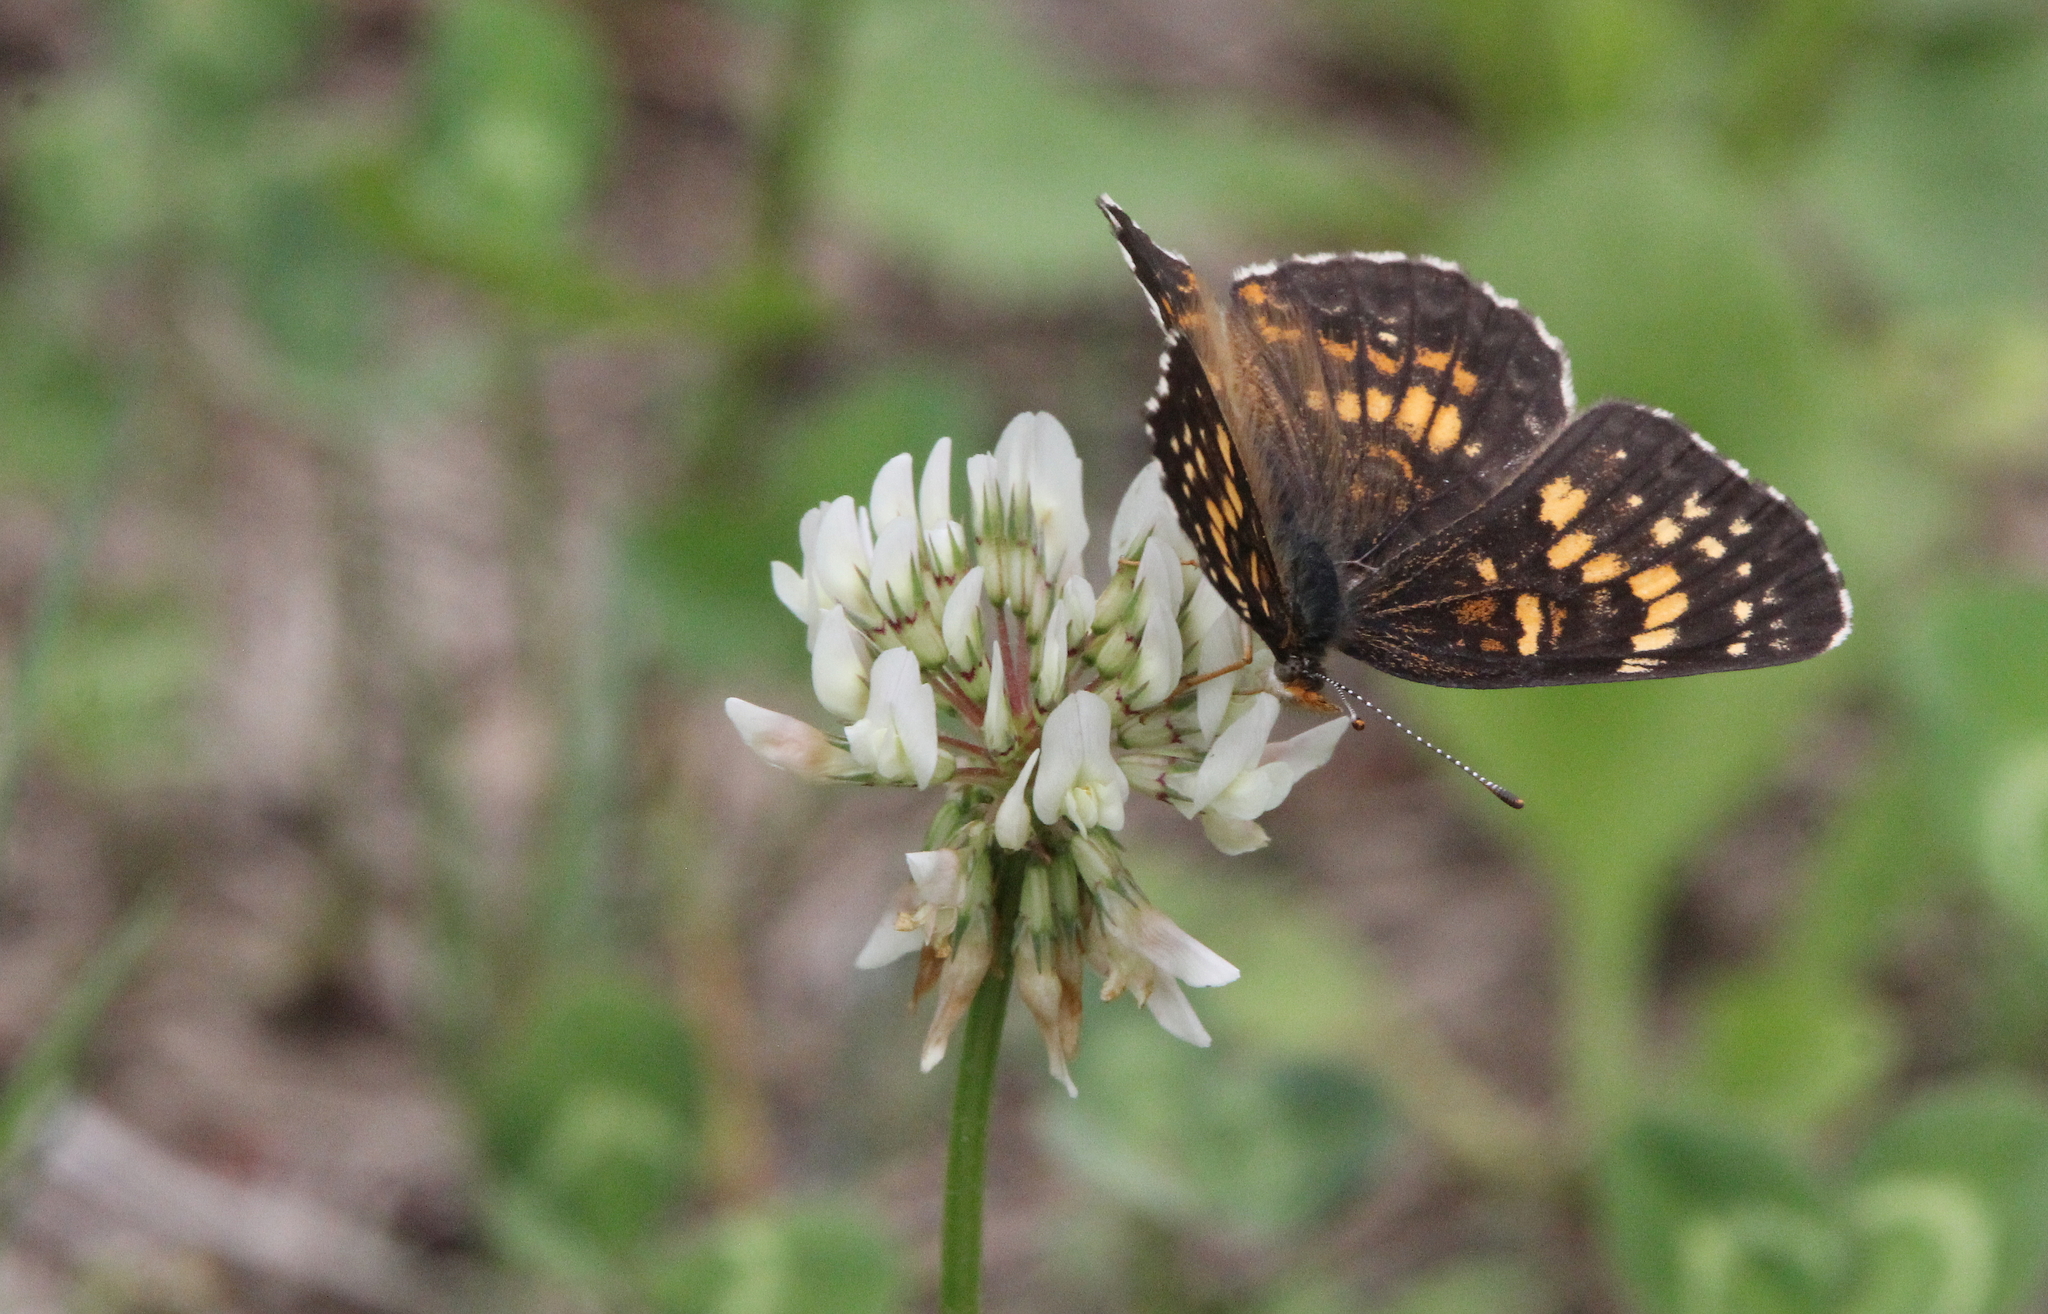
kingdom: Animalia
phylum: Arthropoda
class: Insecta
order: Lepidoptera
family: Nymphalidae
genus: Chlosyne
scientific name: Chlosyne harrisii
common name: Harris's checkerspot
